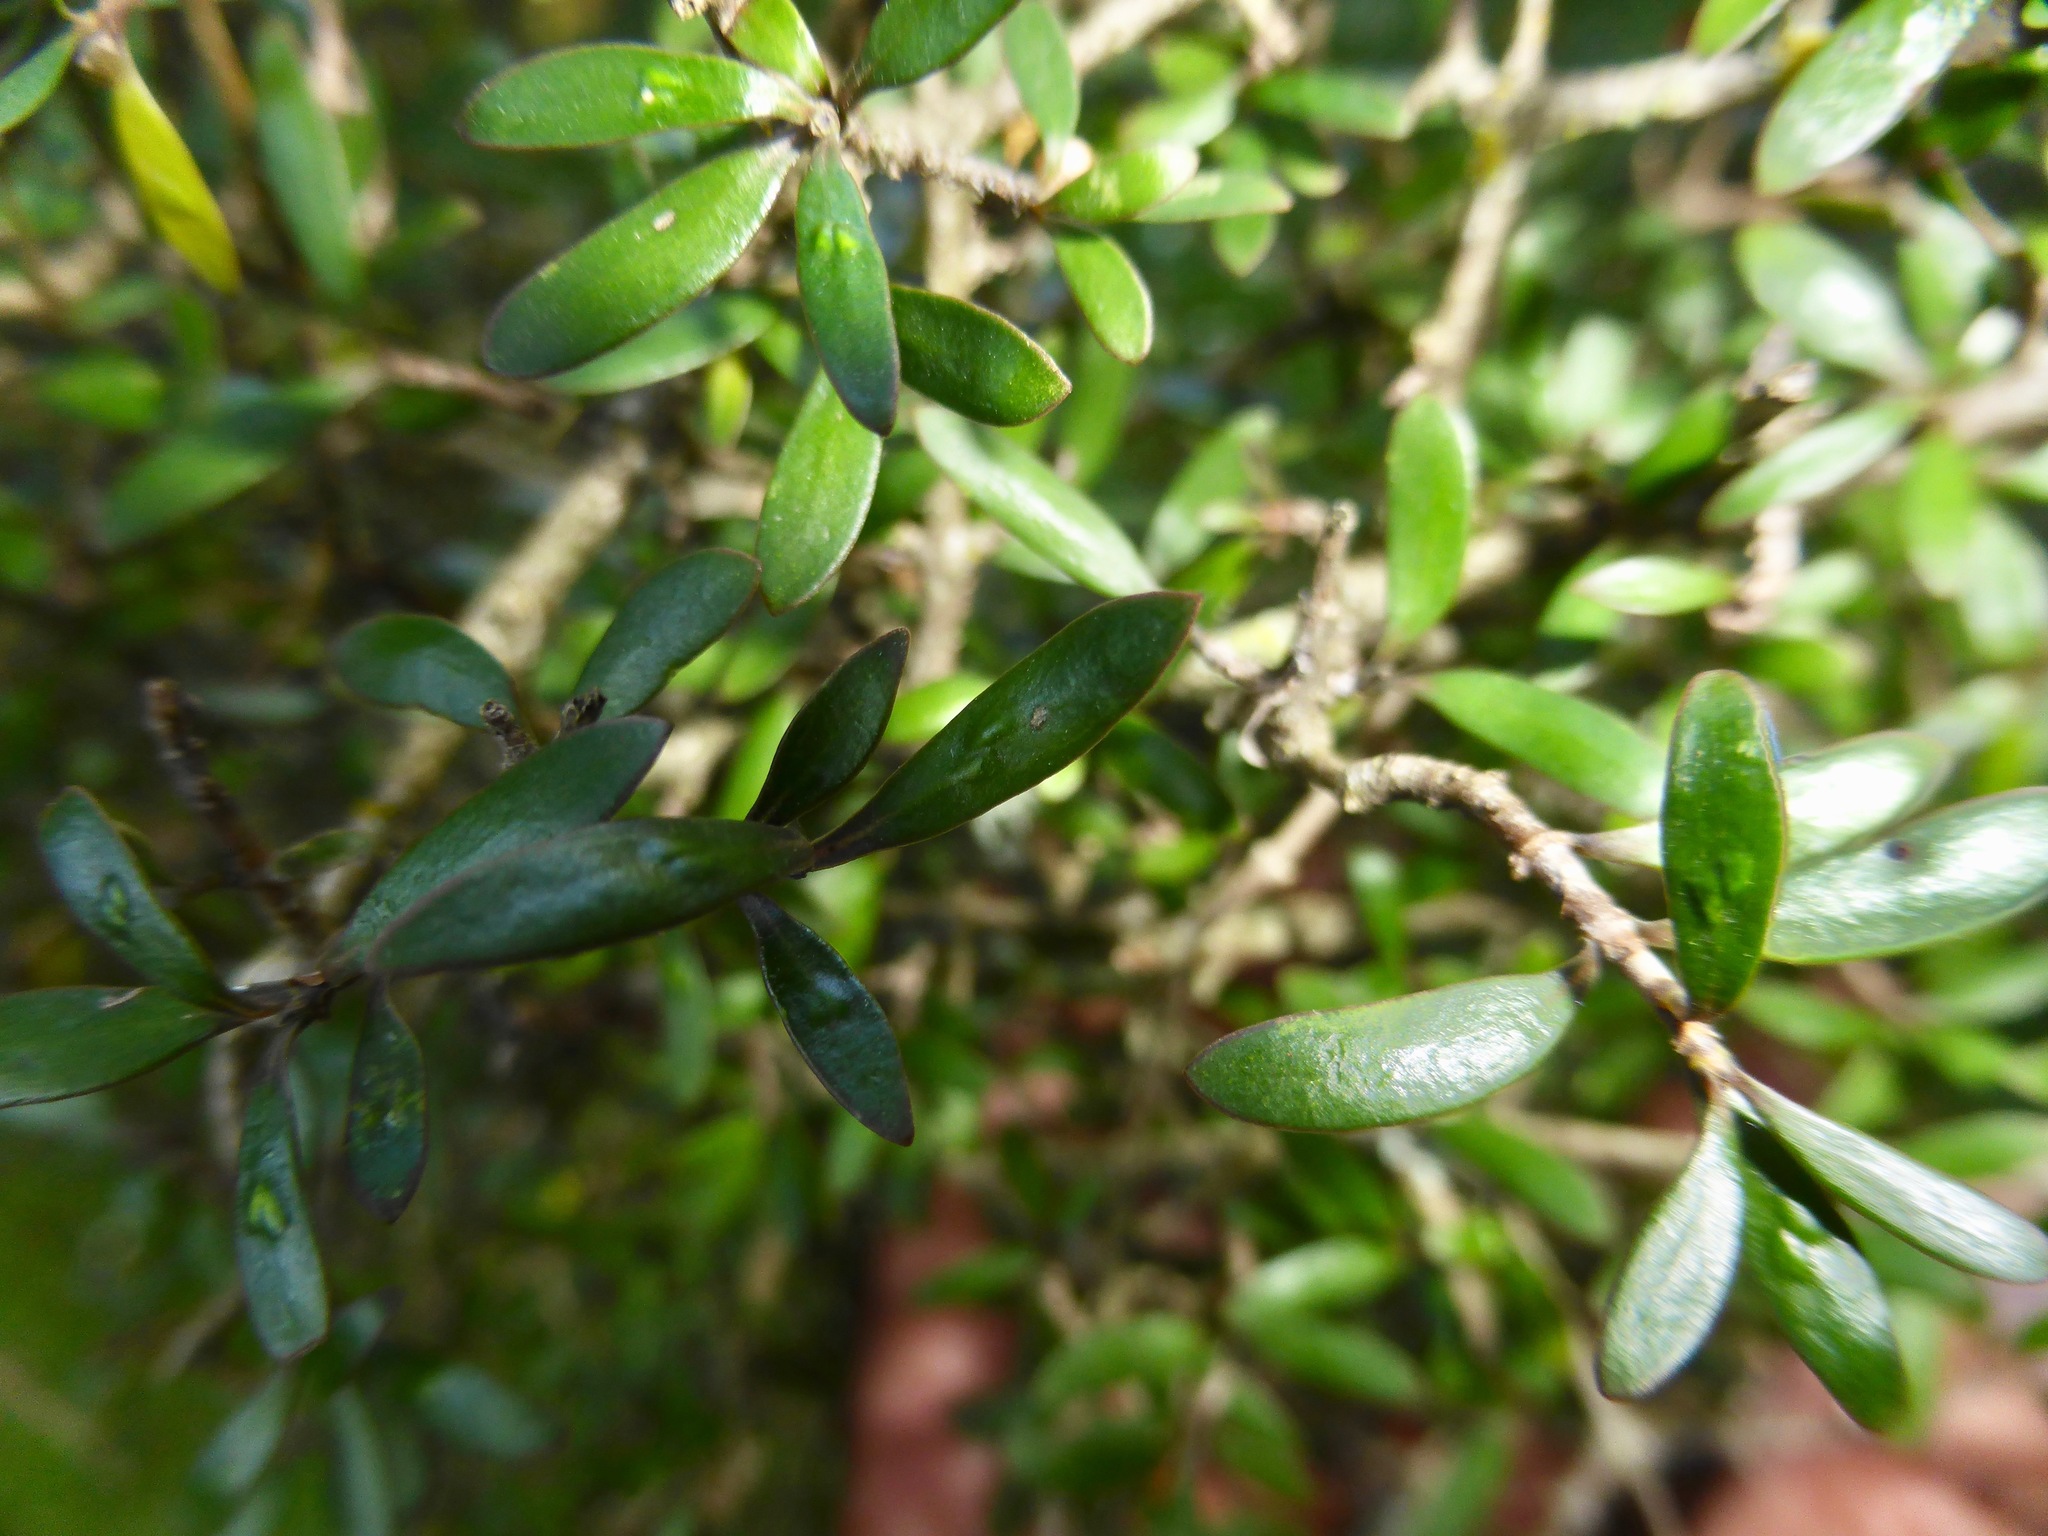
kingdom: Plantae
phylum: Tracheophyta
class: Magnoliopsida
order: Gentianales
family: Rubiaceae
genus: Coprosma
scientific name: Coprosma propinqua
